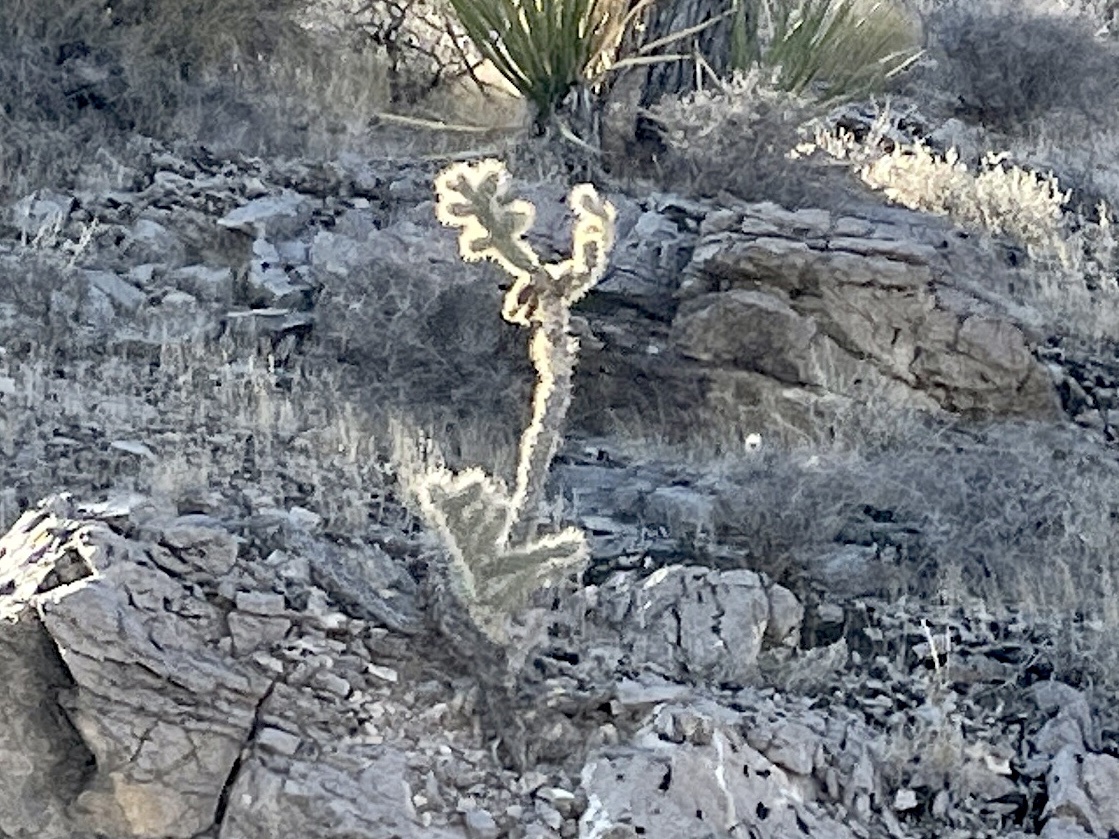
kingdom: Plantae
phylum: Tracheophyta
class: Magnoliopsida
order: Caryophyllales
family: Cactaceae
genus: Cylindropuntia
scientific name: Cylindropuntia echinocarpa
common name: Ground cholla
